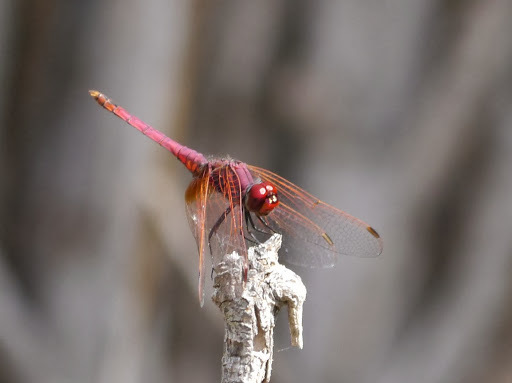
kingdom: Animalia
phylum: Arthropoda
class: Insecta
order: Odonata
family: Libellulidae
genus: Trithemis
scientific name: Trithemis annulata
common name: Violet dropwing
